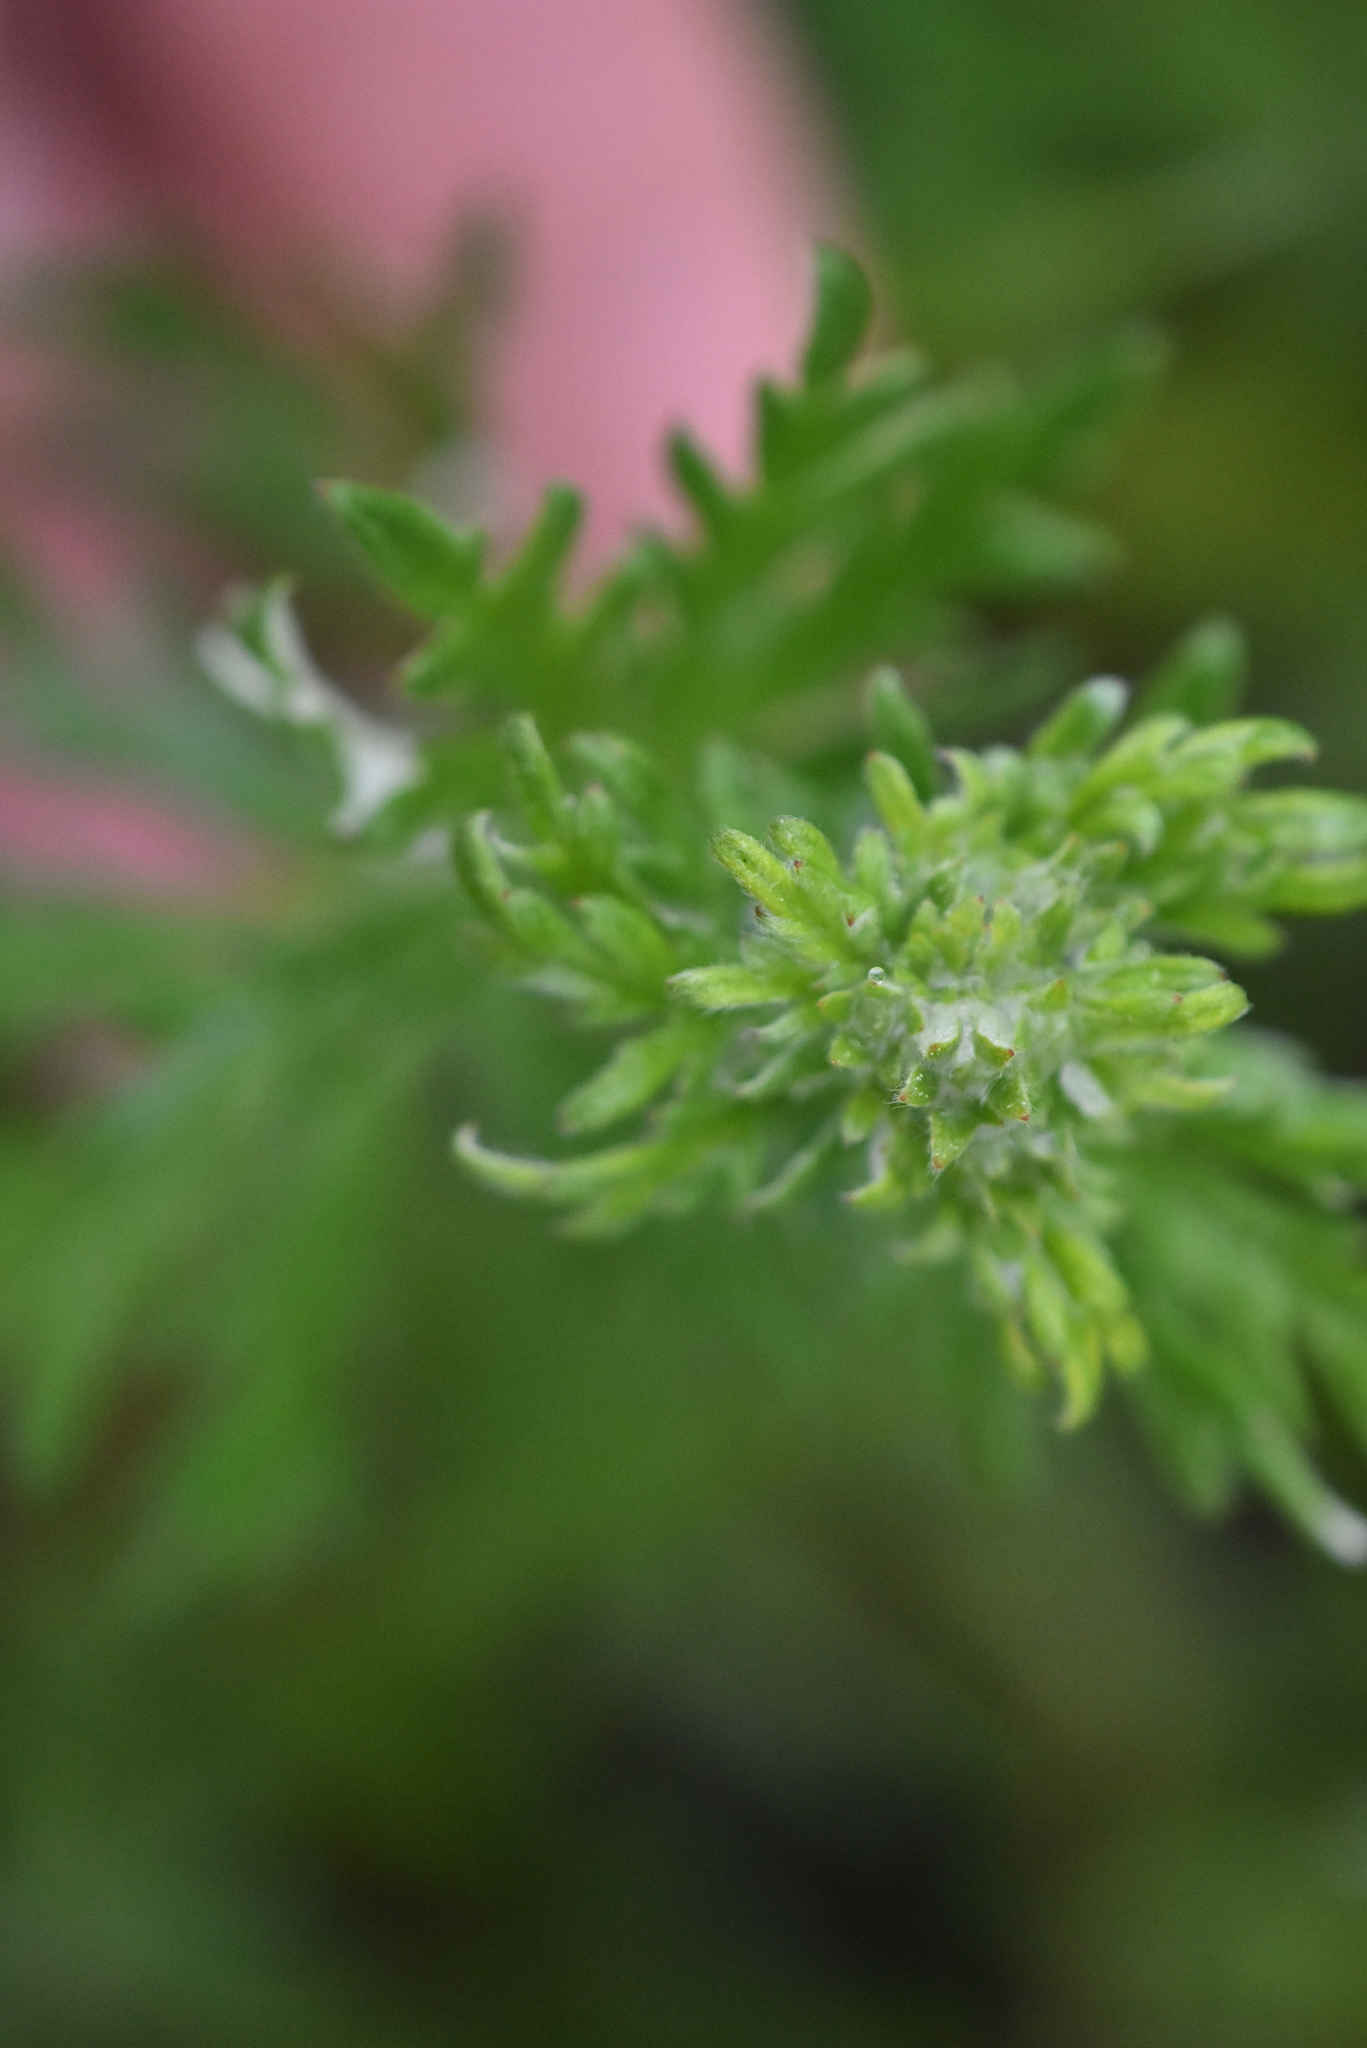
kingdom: Plantae
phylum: Tracheophyta
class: Magnoliopsida
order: Rosales
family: Rosaceae
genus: Potentilla
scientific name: Potentilla argentea
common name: Hoary cinquefoil
